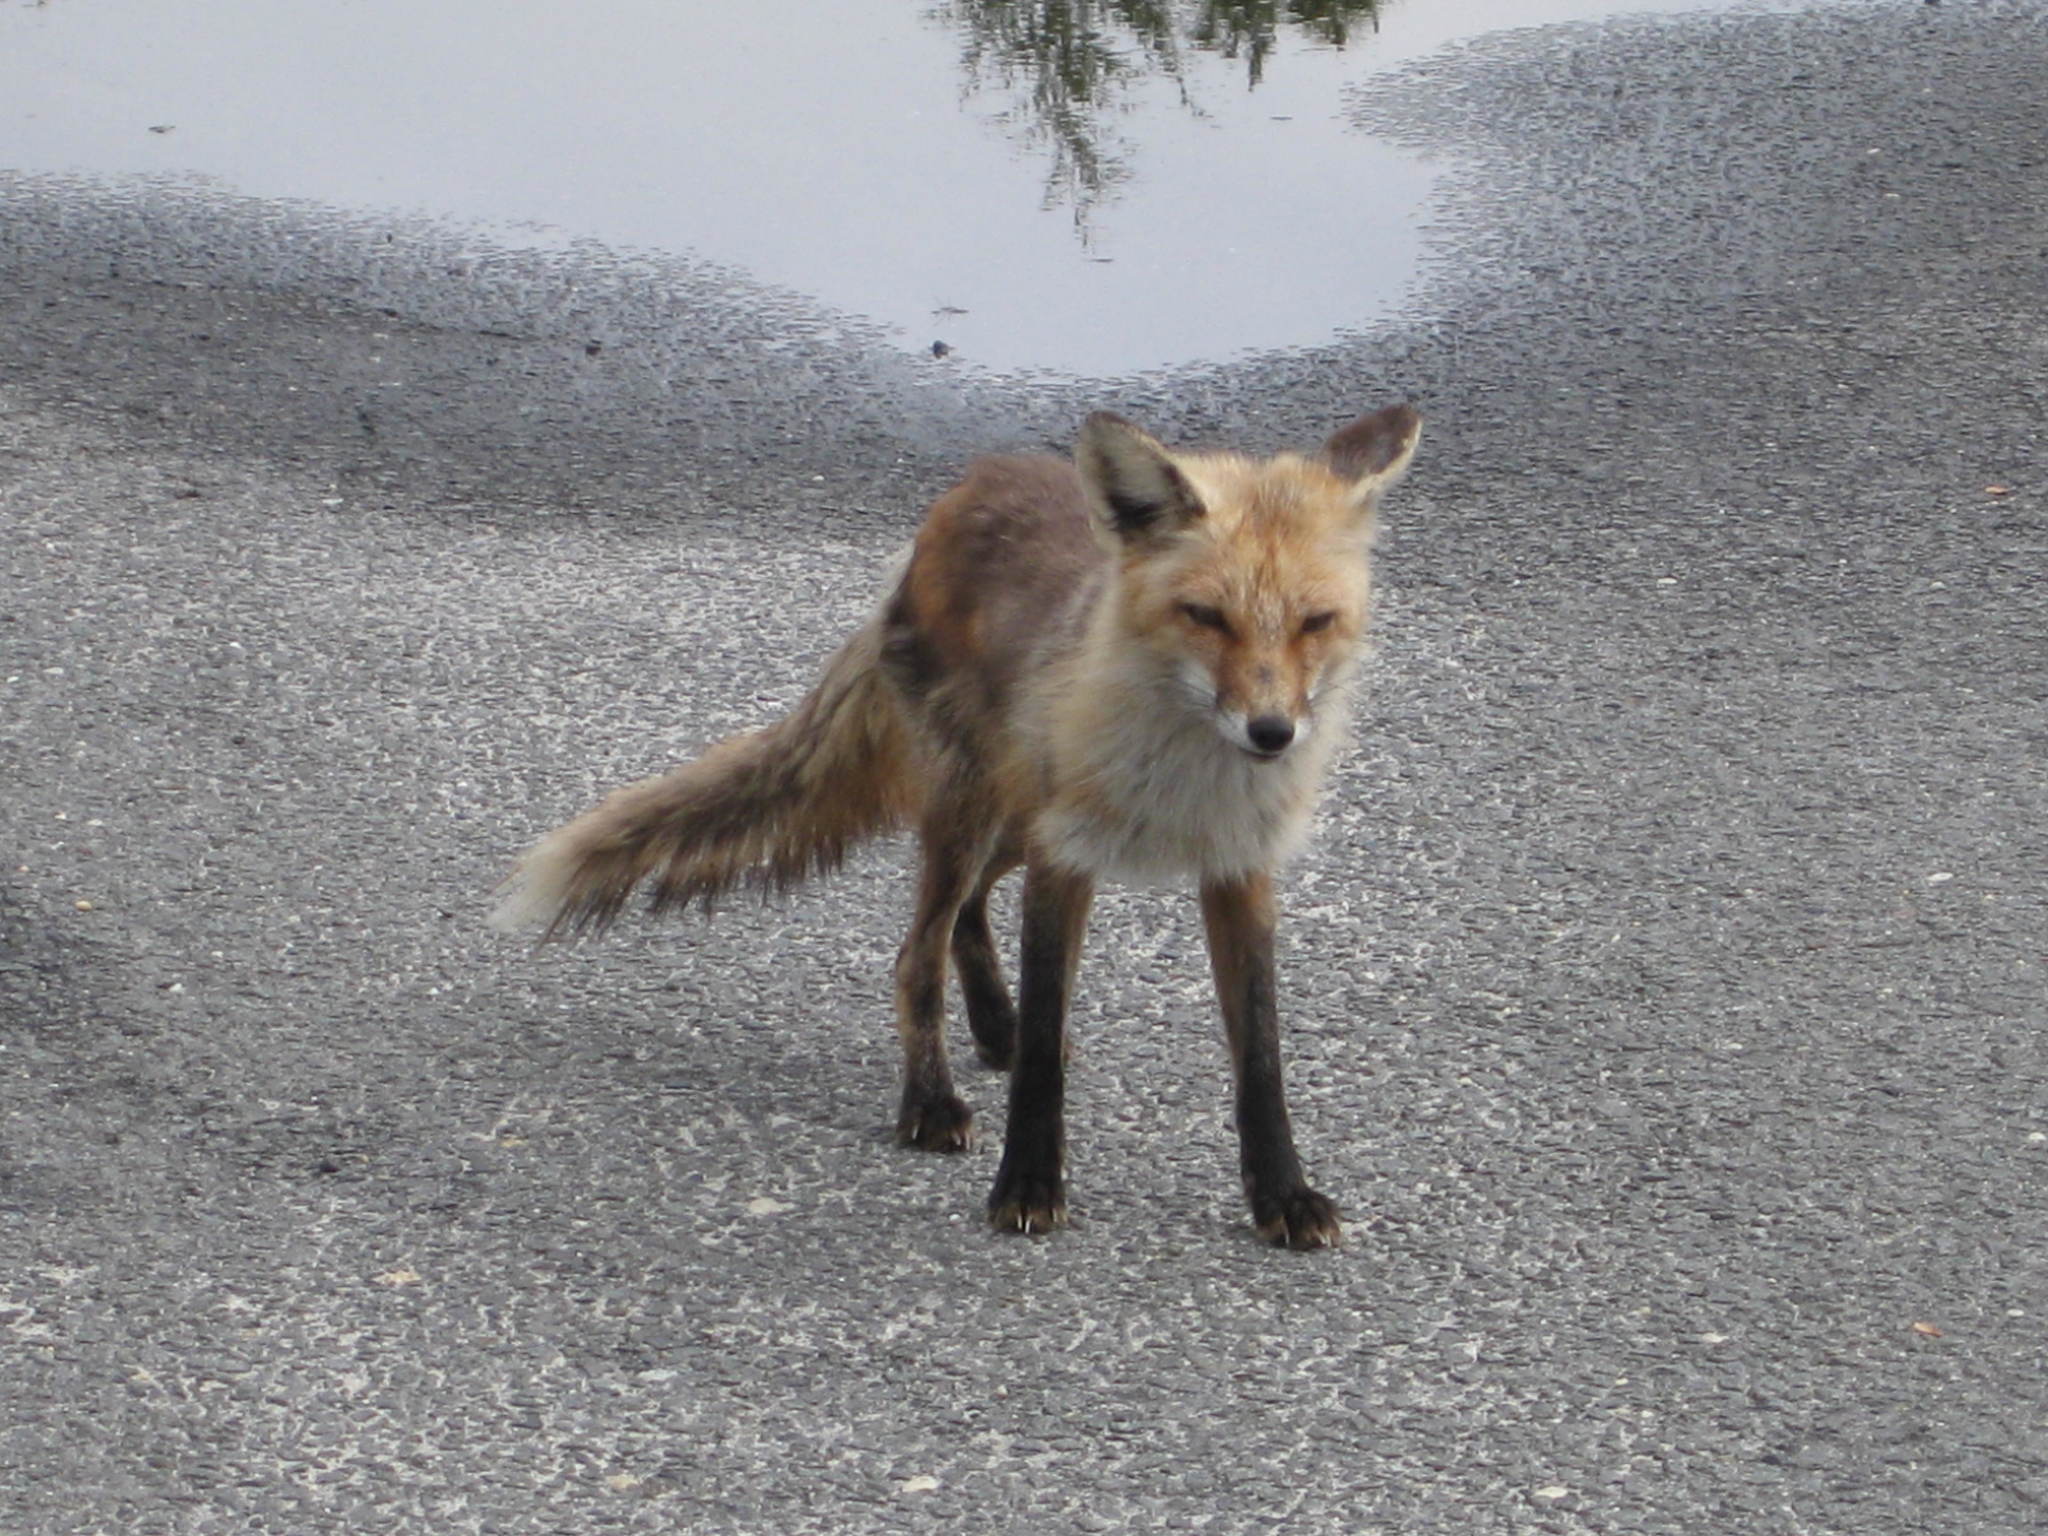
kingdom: Animalia
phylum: Chordata
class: Mammalia
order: Carnivora
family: Canidae
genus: Vulpes
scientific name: Vulpes vulpes
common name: Red fox
